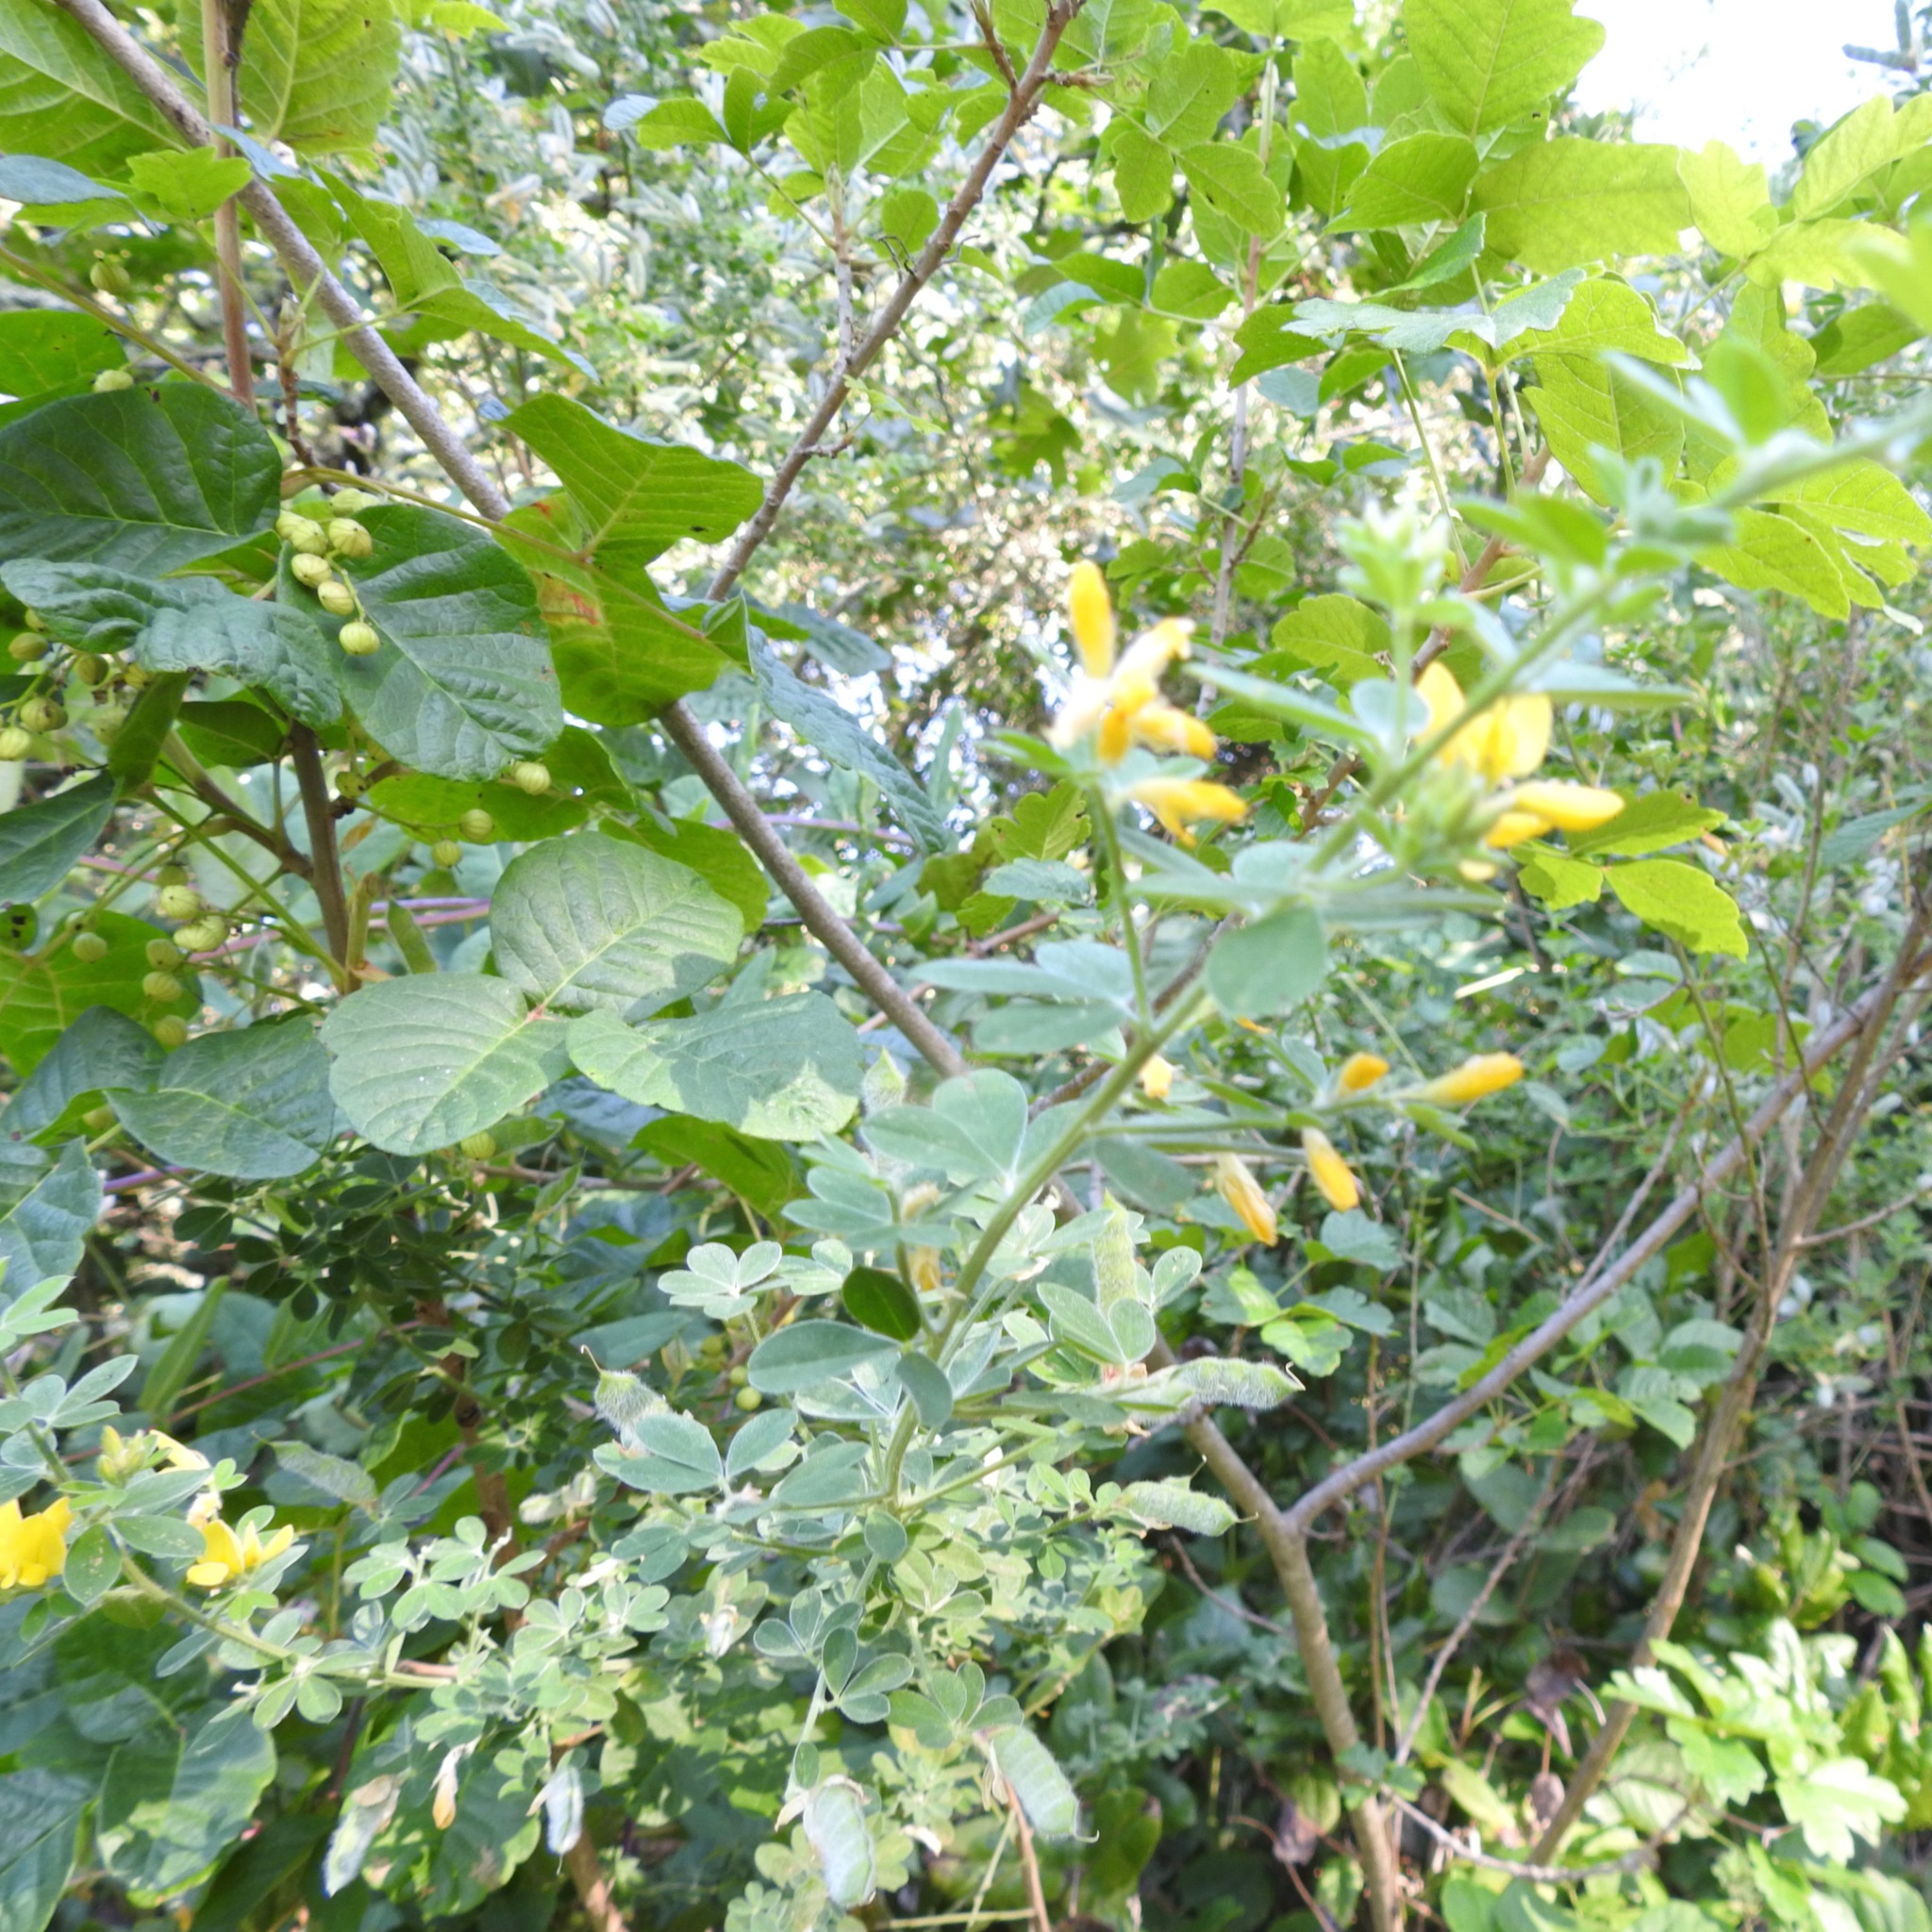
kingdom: Plantae
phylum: Tracheophyta
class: Magnoliopsida
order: Fabales
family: Fabaceae
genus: Genista
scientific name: Genista monspessulana
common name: Montpellier broom
